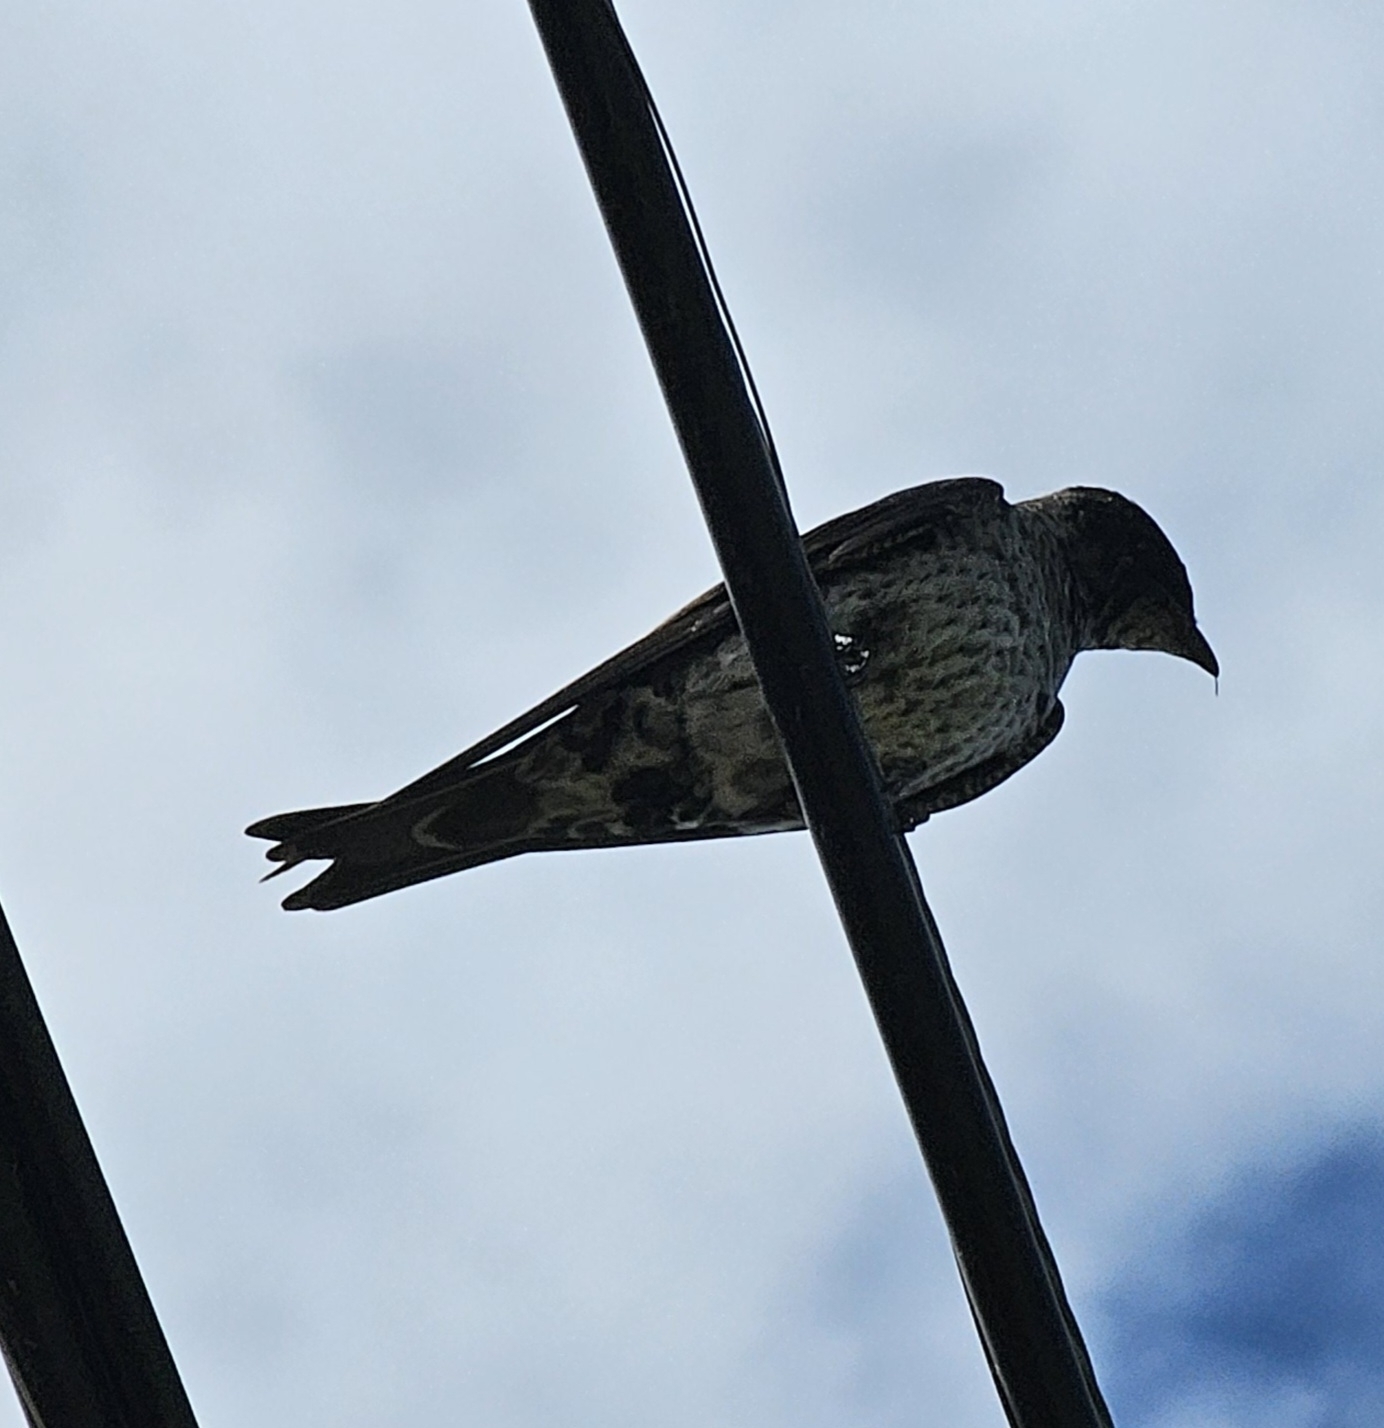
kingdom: Animalia
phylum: Chordata
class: Aves
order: Passeriformes
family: Hirundinidae
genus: Progne
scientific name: Progne subis
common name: Purple martin
